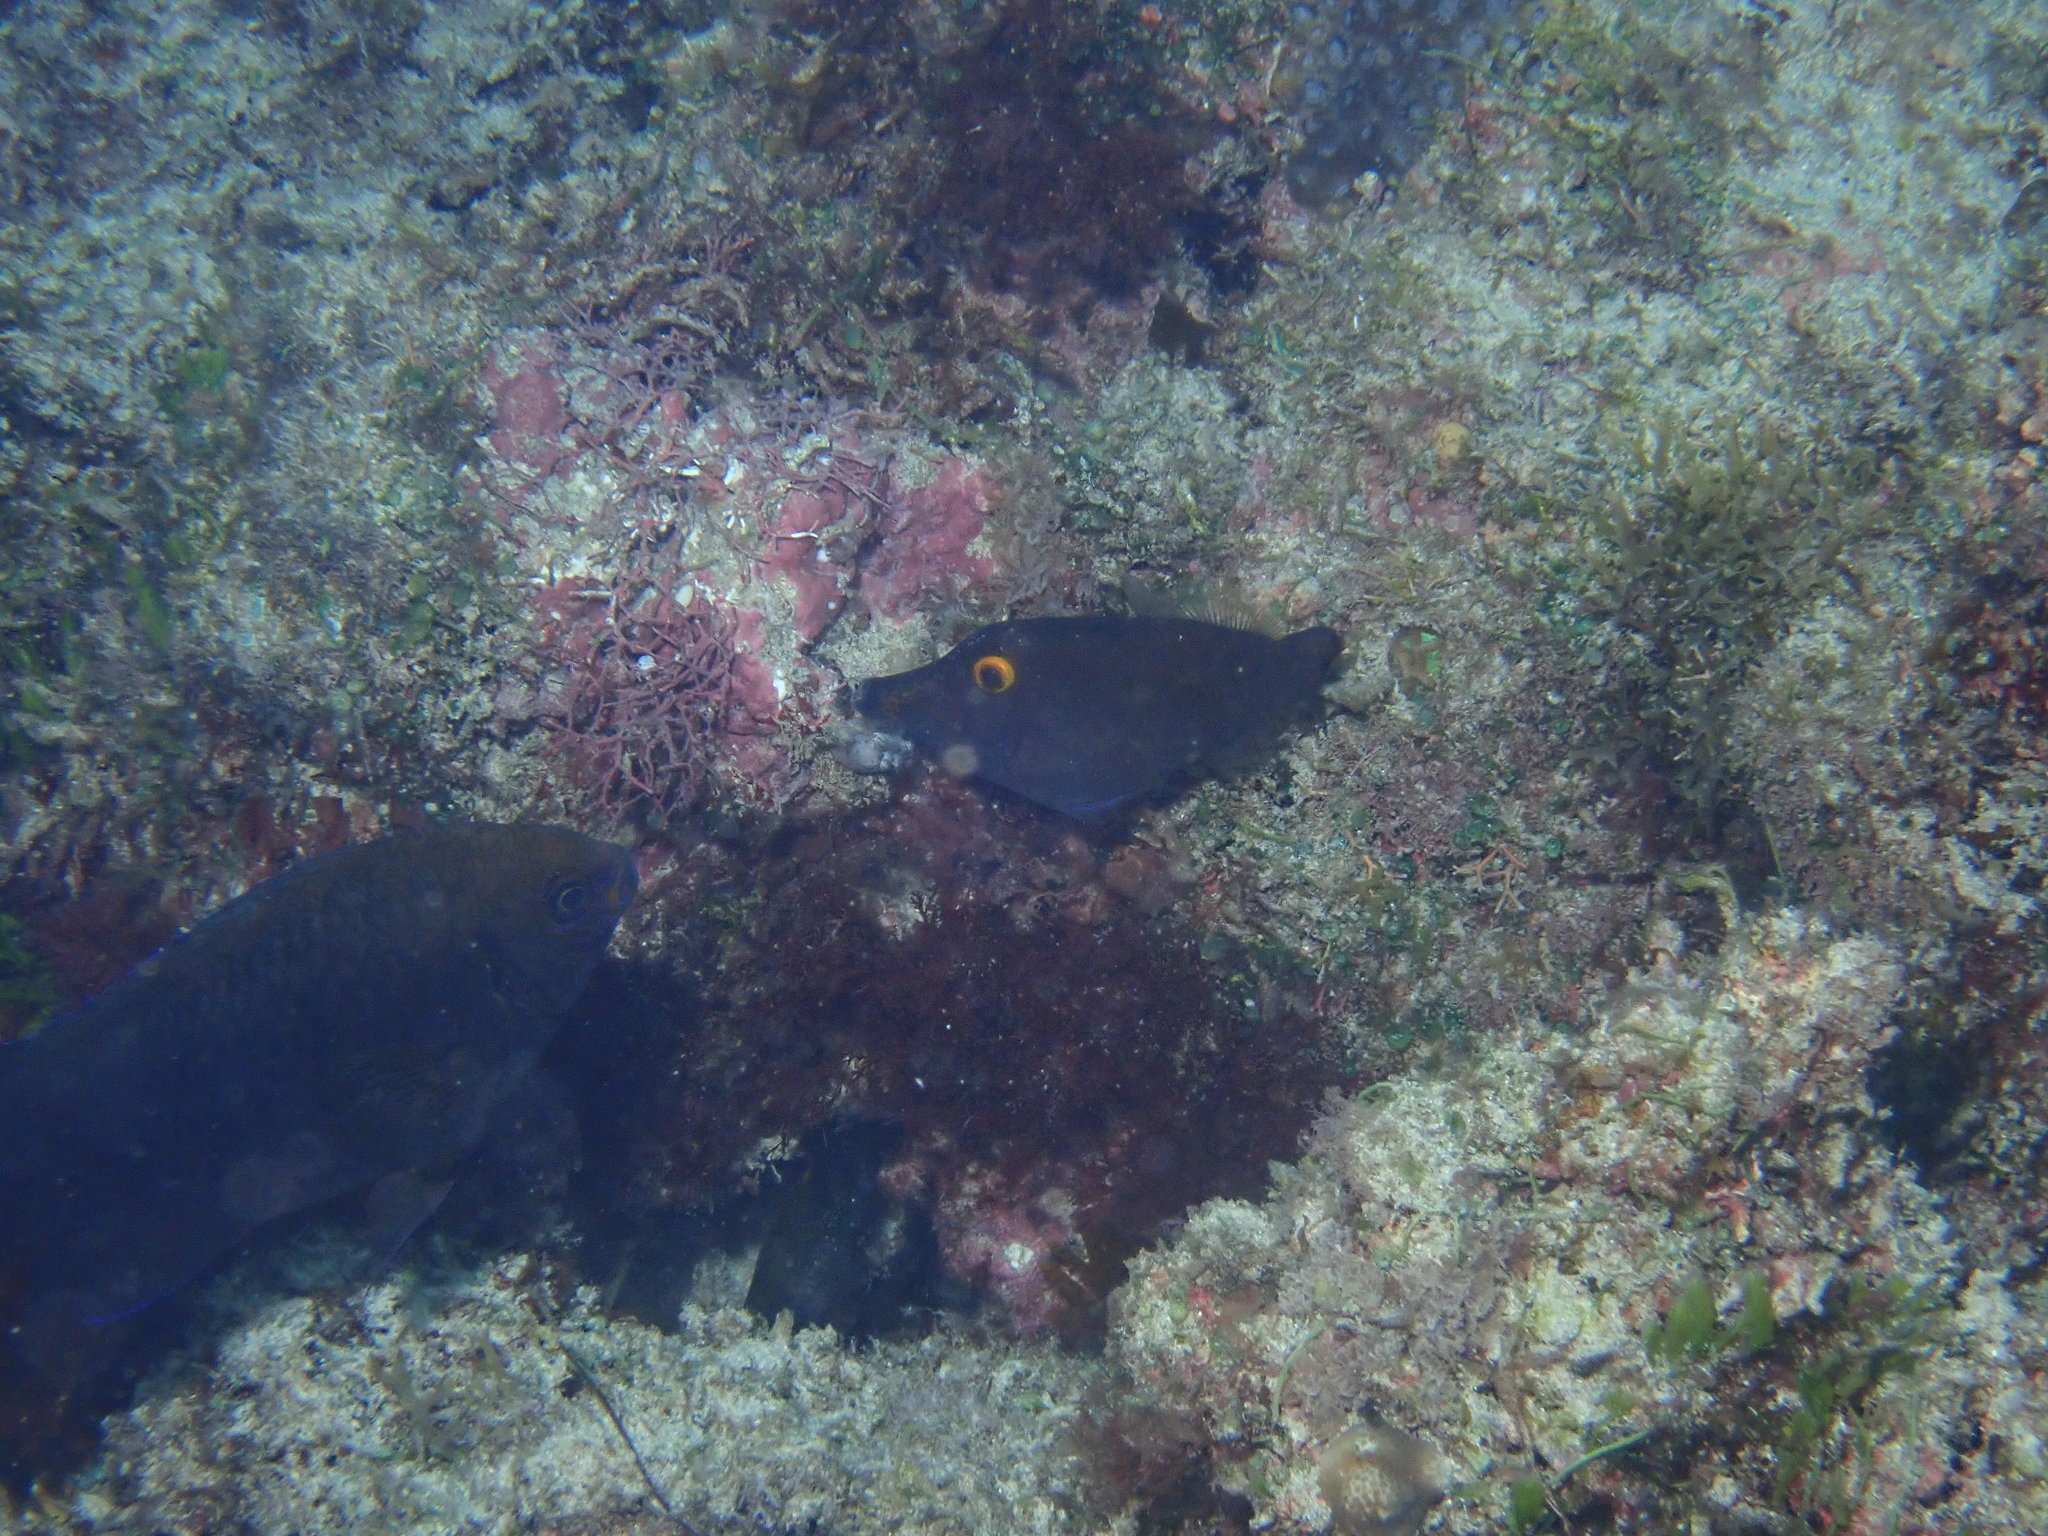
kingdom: Animalia
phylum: Chordata
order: Tetraodontiformes
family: Monacanthidae
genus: Pervagor
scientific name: Pervagor alternans
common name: Yelloweye filefish
